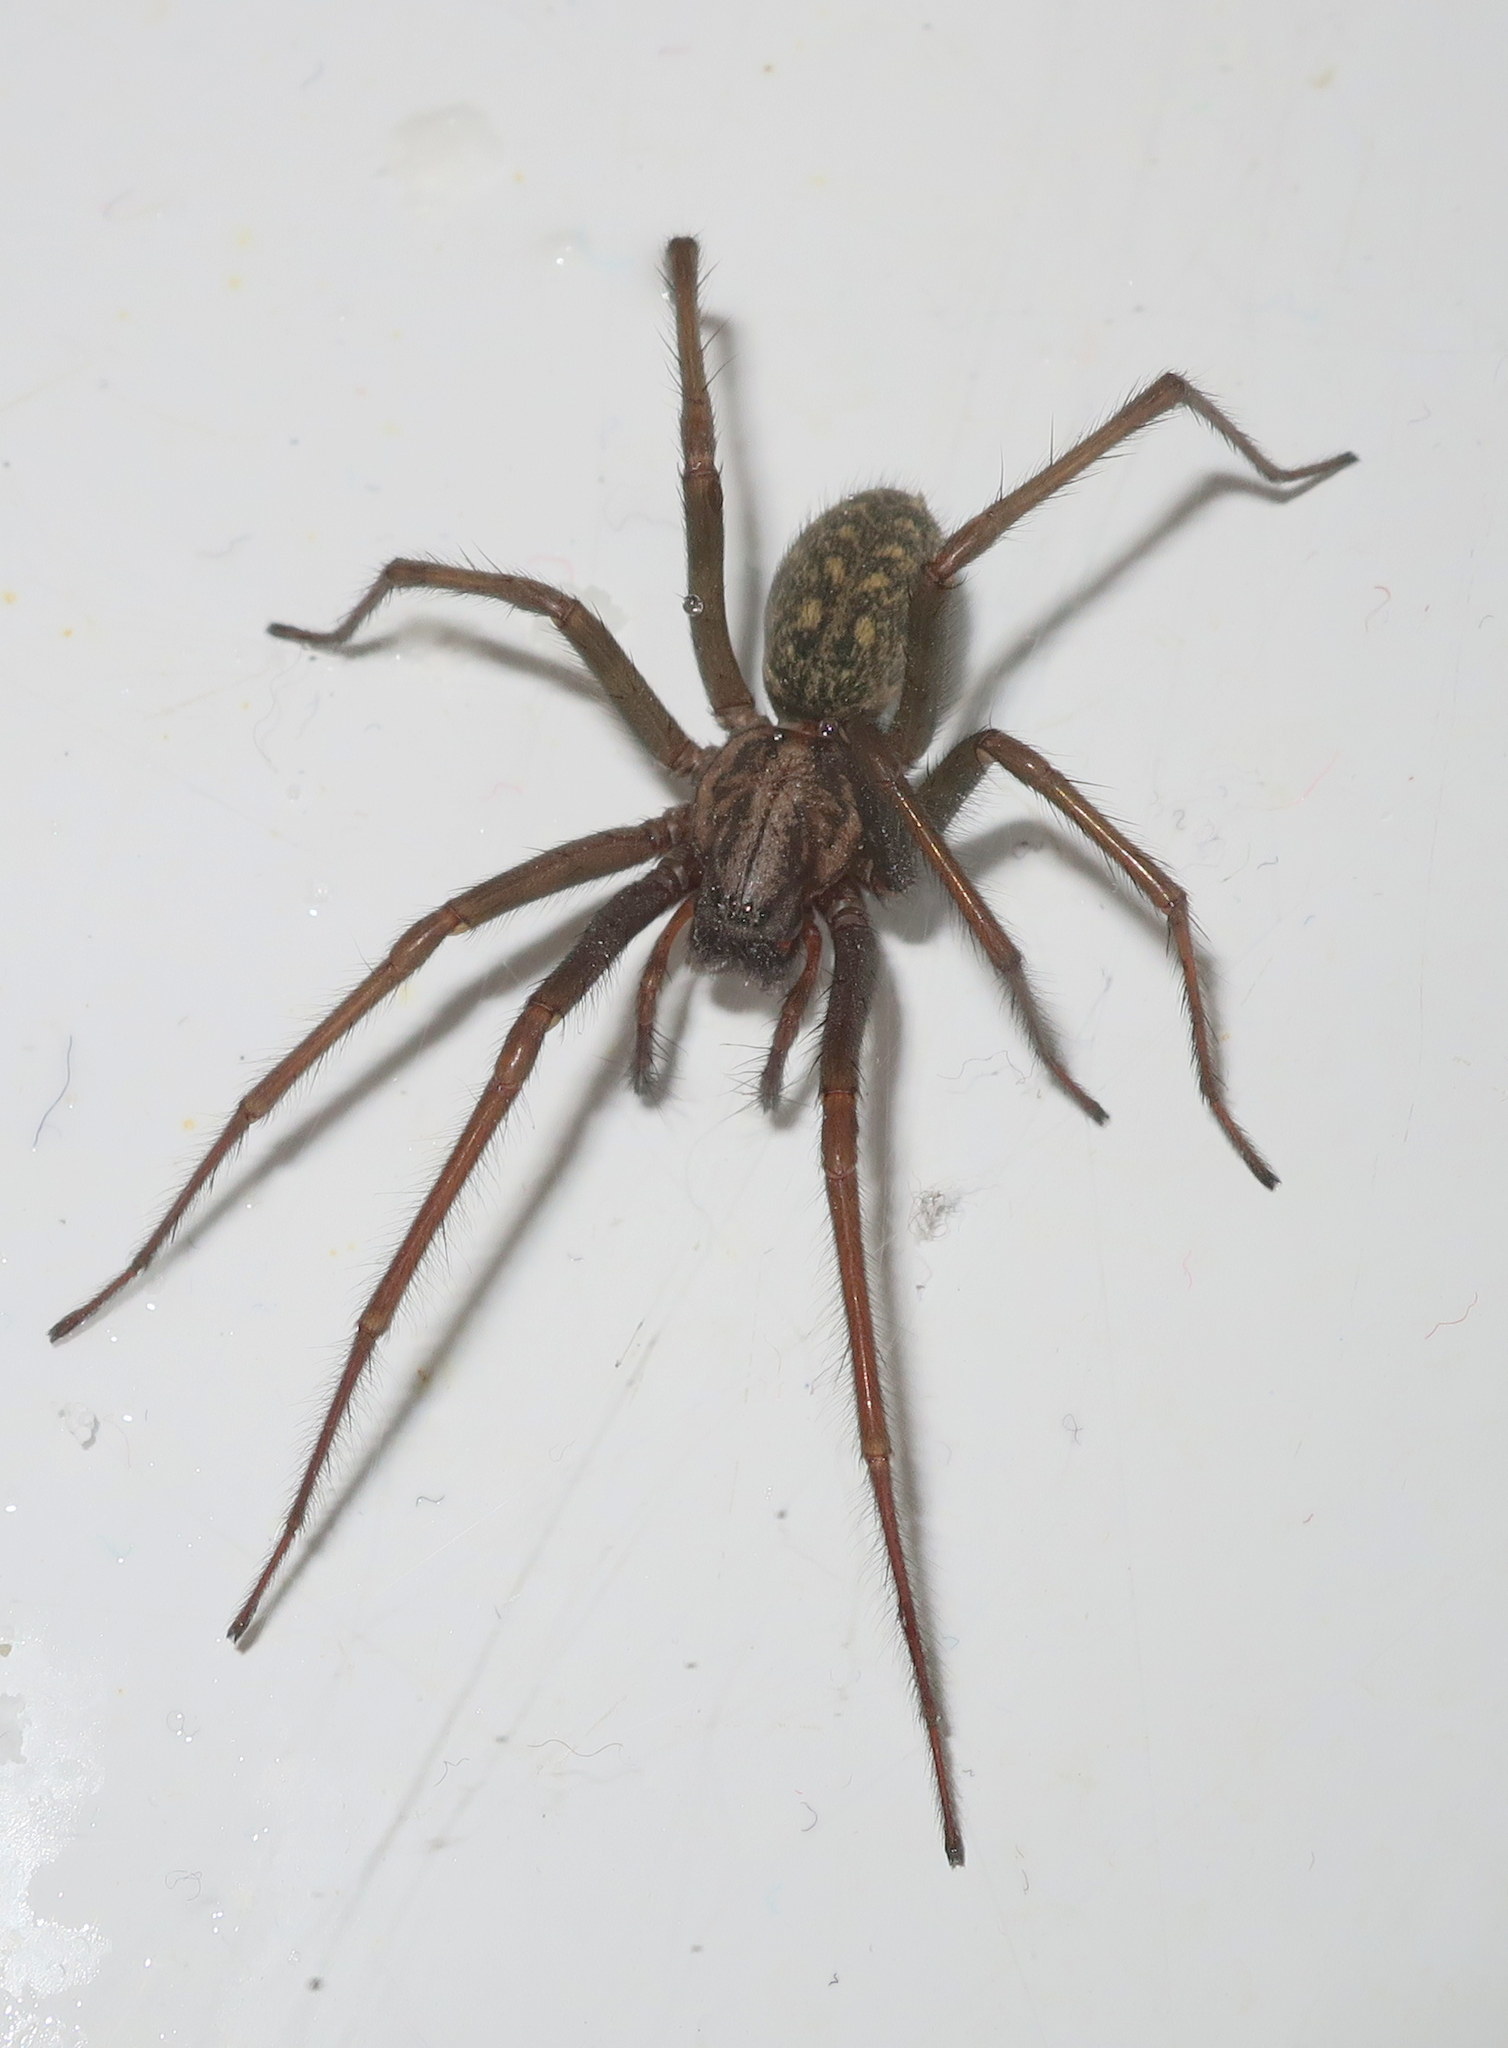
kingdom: Animalia
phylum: Arthropoda
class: Arachnida
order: Araneae
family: Agelenidae
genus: Eratigena
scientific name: Eratigena atrica
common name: Giant house spider
